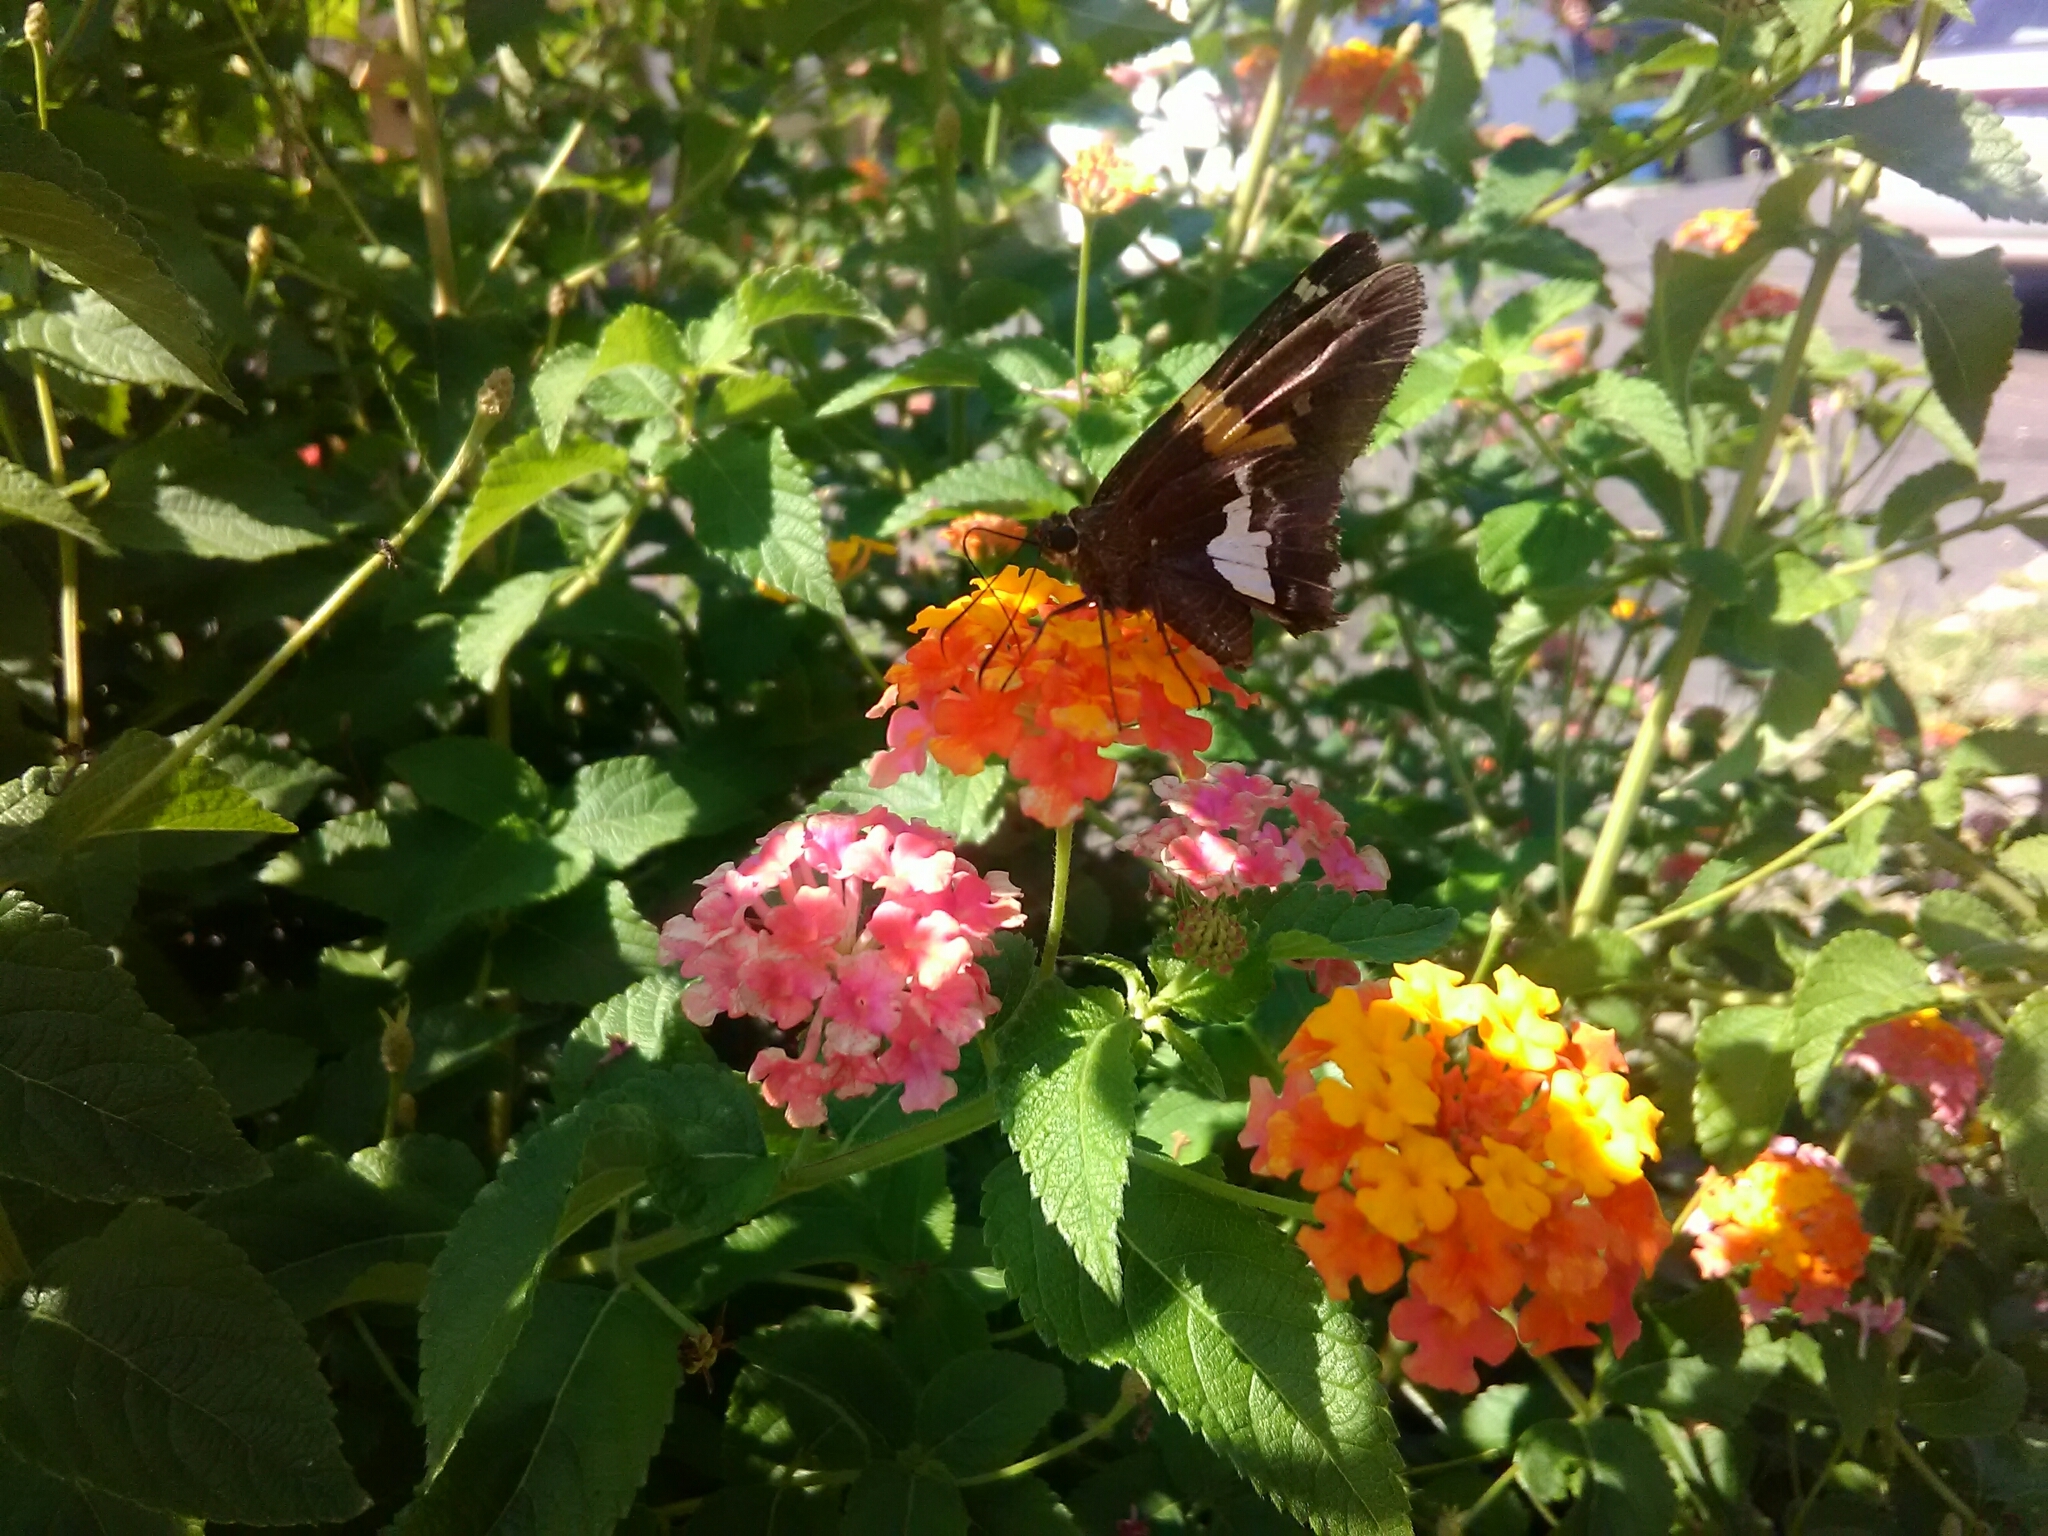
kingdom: Animalia
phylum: Arthropoda
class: Insecta
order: Lepidoptera
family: Hesperiidae
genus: Epargyreus
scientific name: Epargyreus clarus
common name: Silver-spotted skipper
